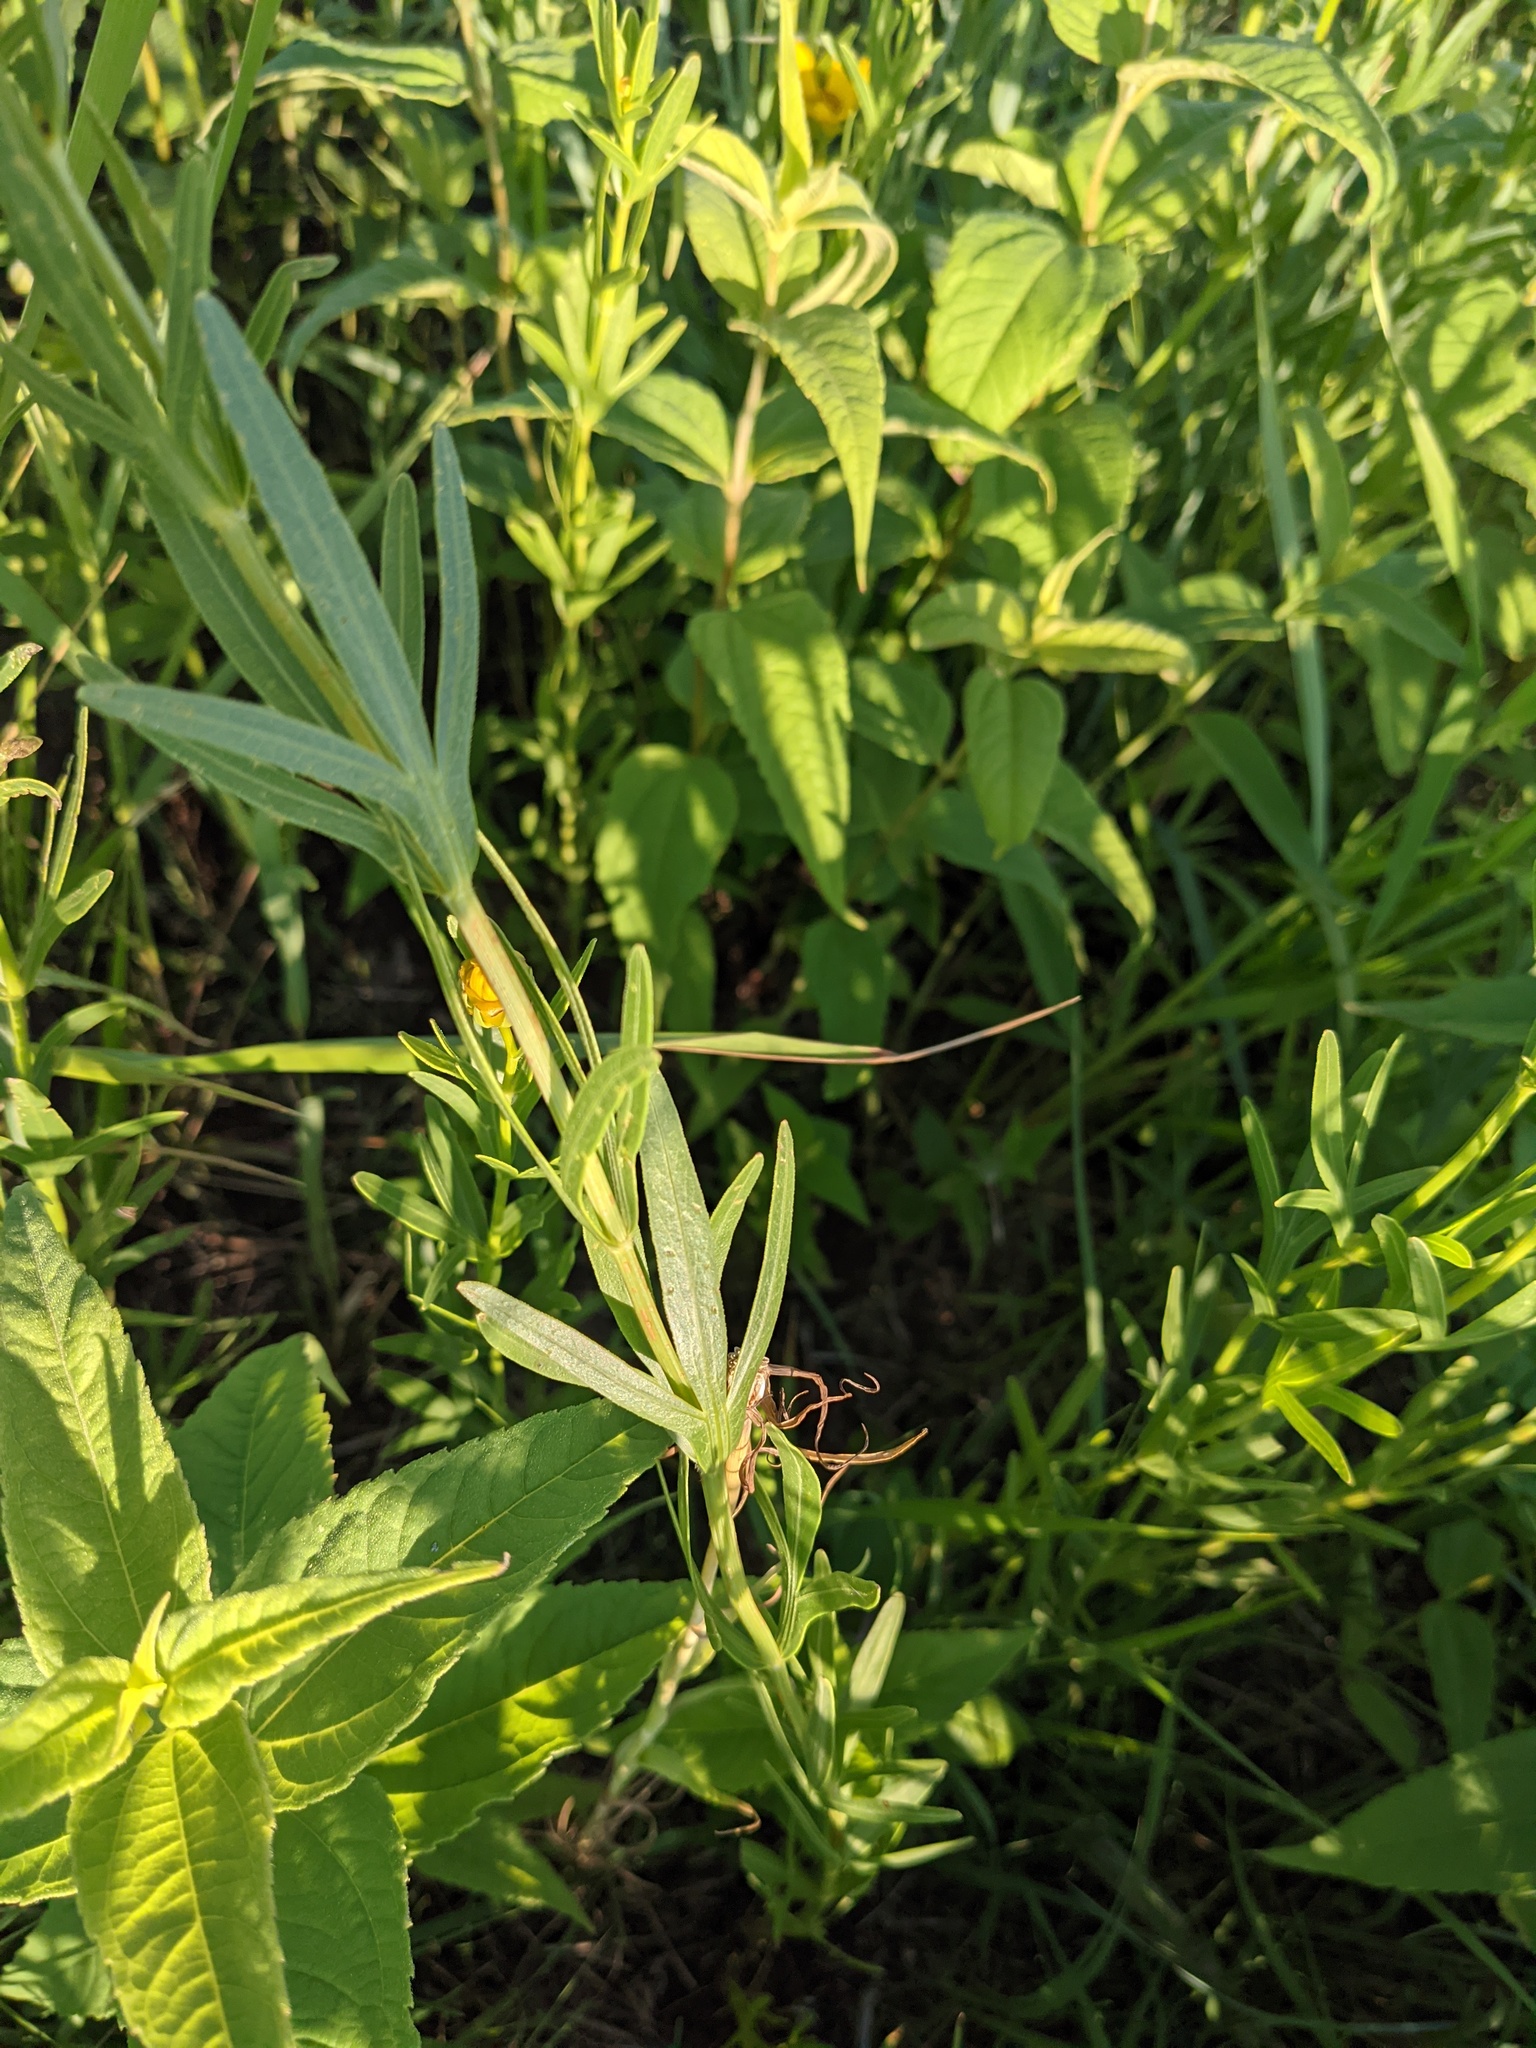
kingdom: Plantae
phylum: Tracheophyta
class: Magnoliopsida
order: Asterales
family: Asteraceae
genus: Coreopsis
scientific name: Coreopsis palmata
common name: Prairie coreopsis
